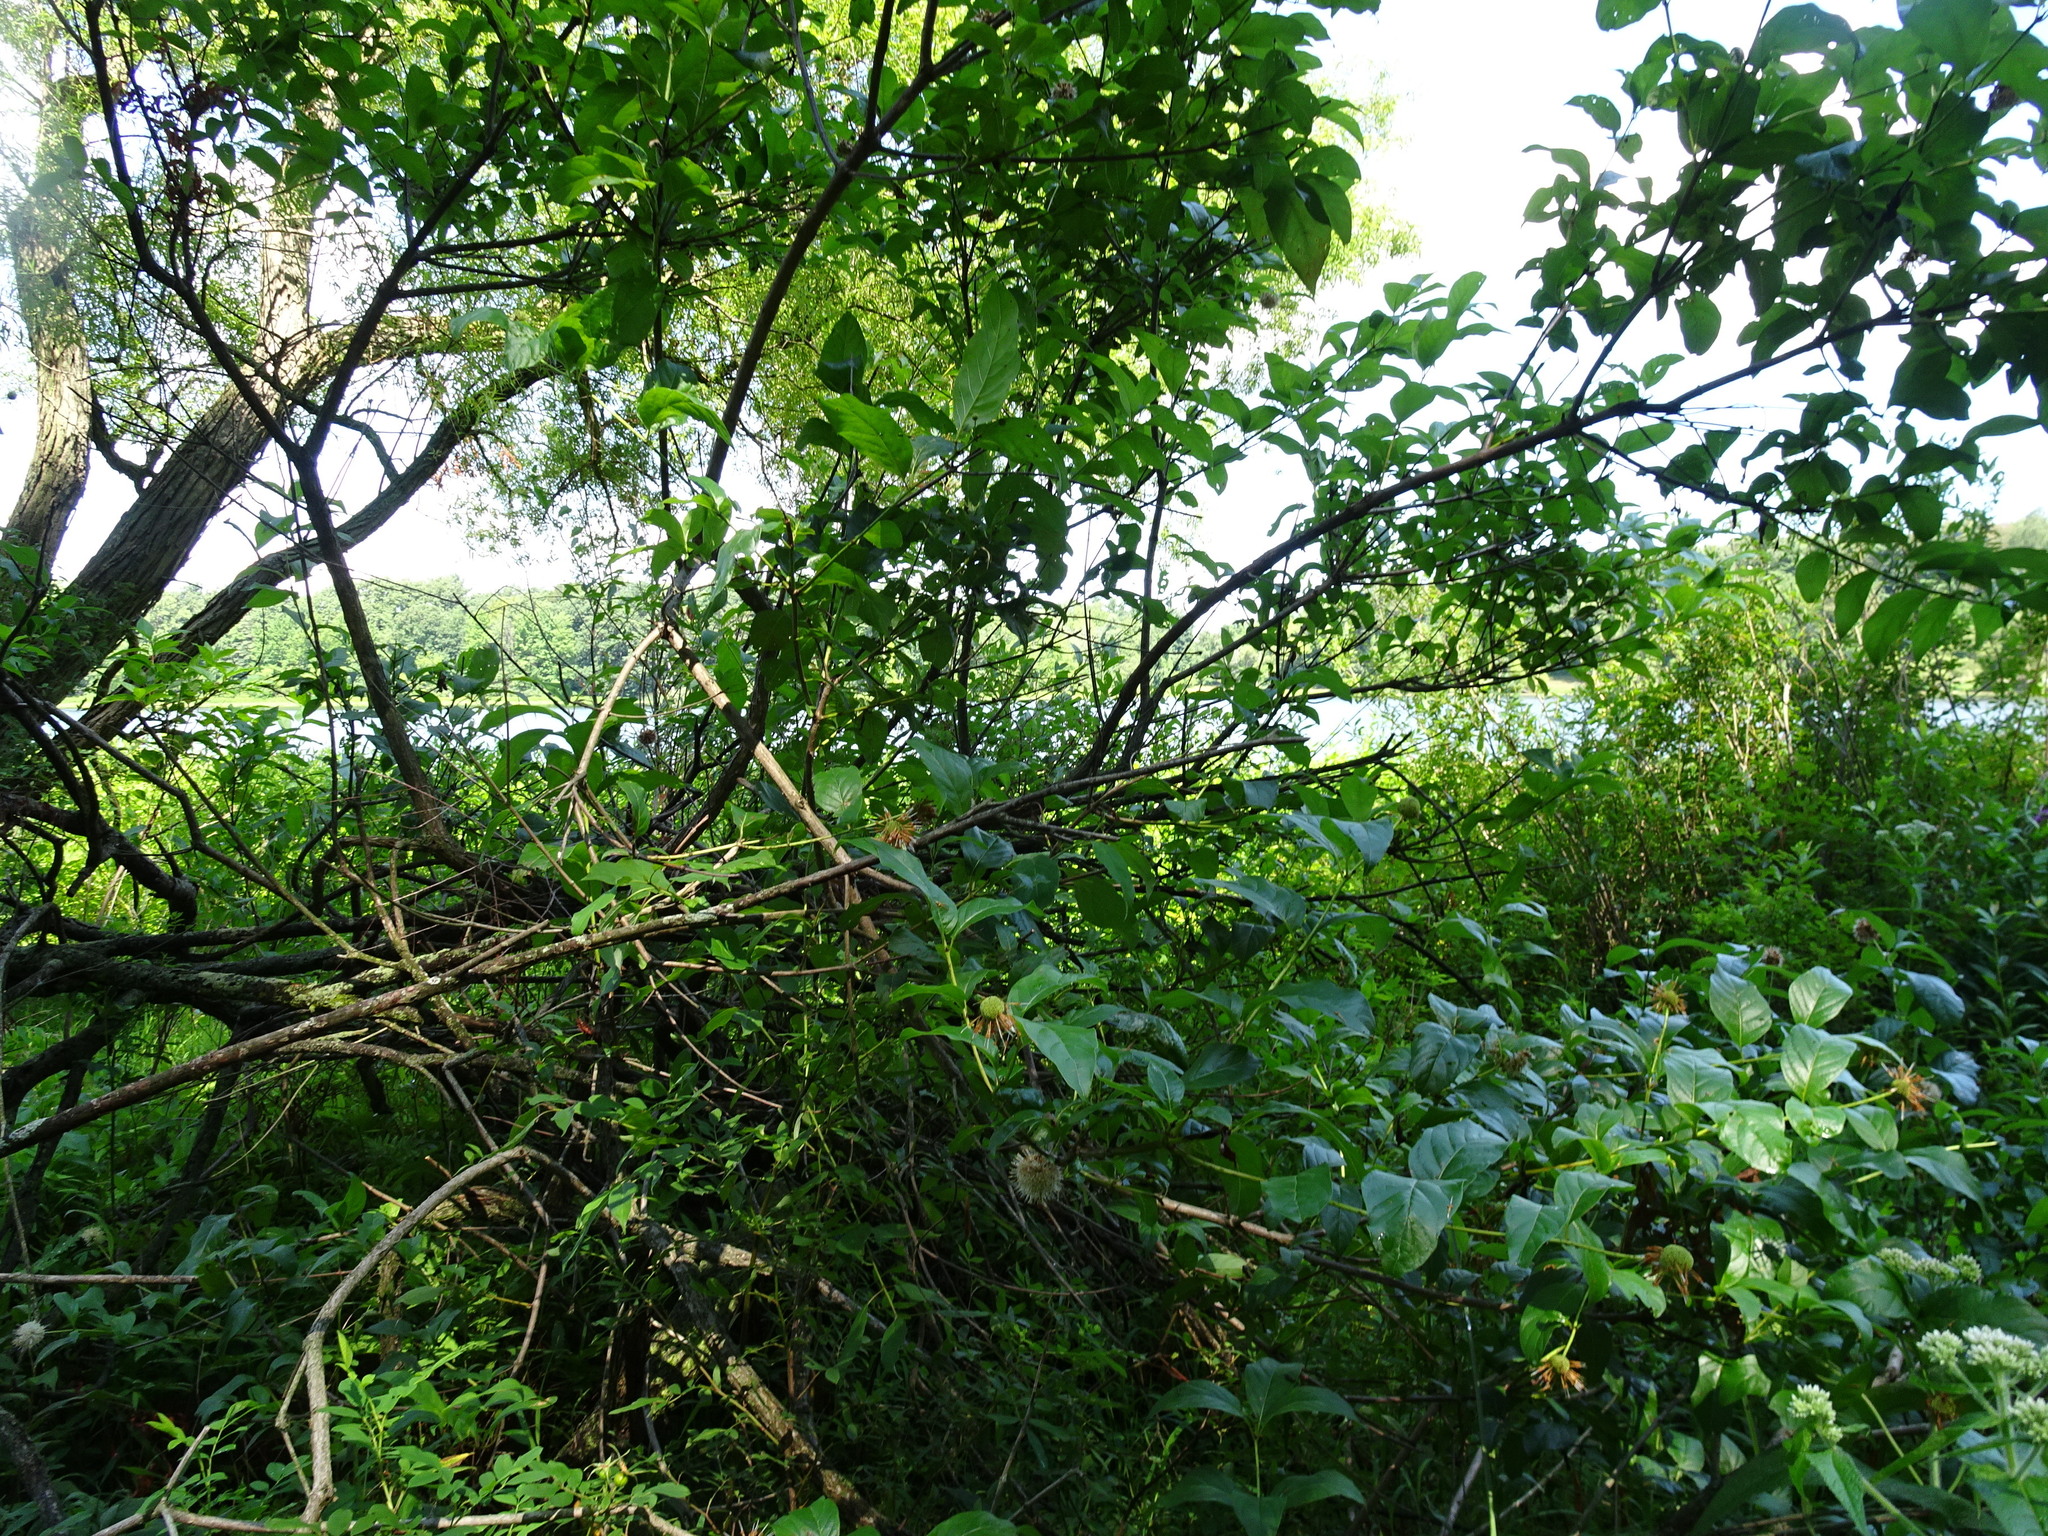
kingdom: Plantae
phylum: Tracheophyta
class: Magnoliopsida
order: Gentianales
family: Rubiaceae
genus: Cephalanthus
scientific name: Cephalanthus occidentalis
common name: Button-willow
